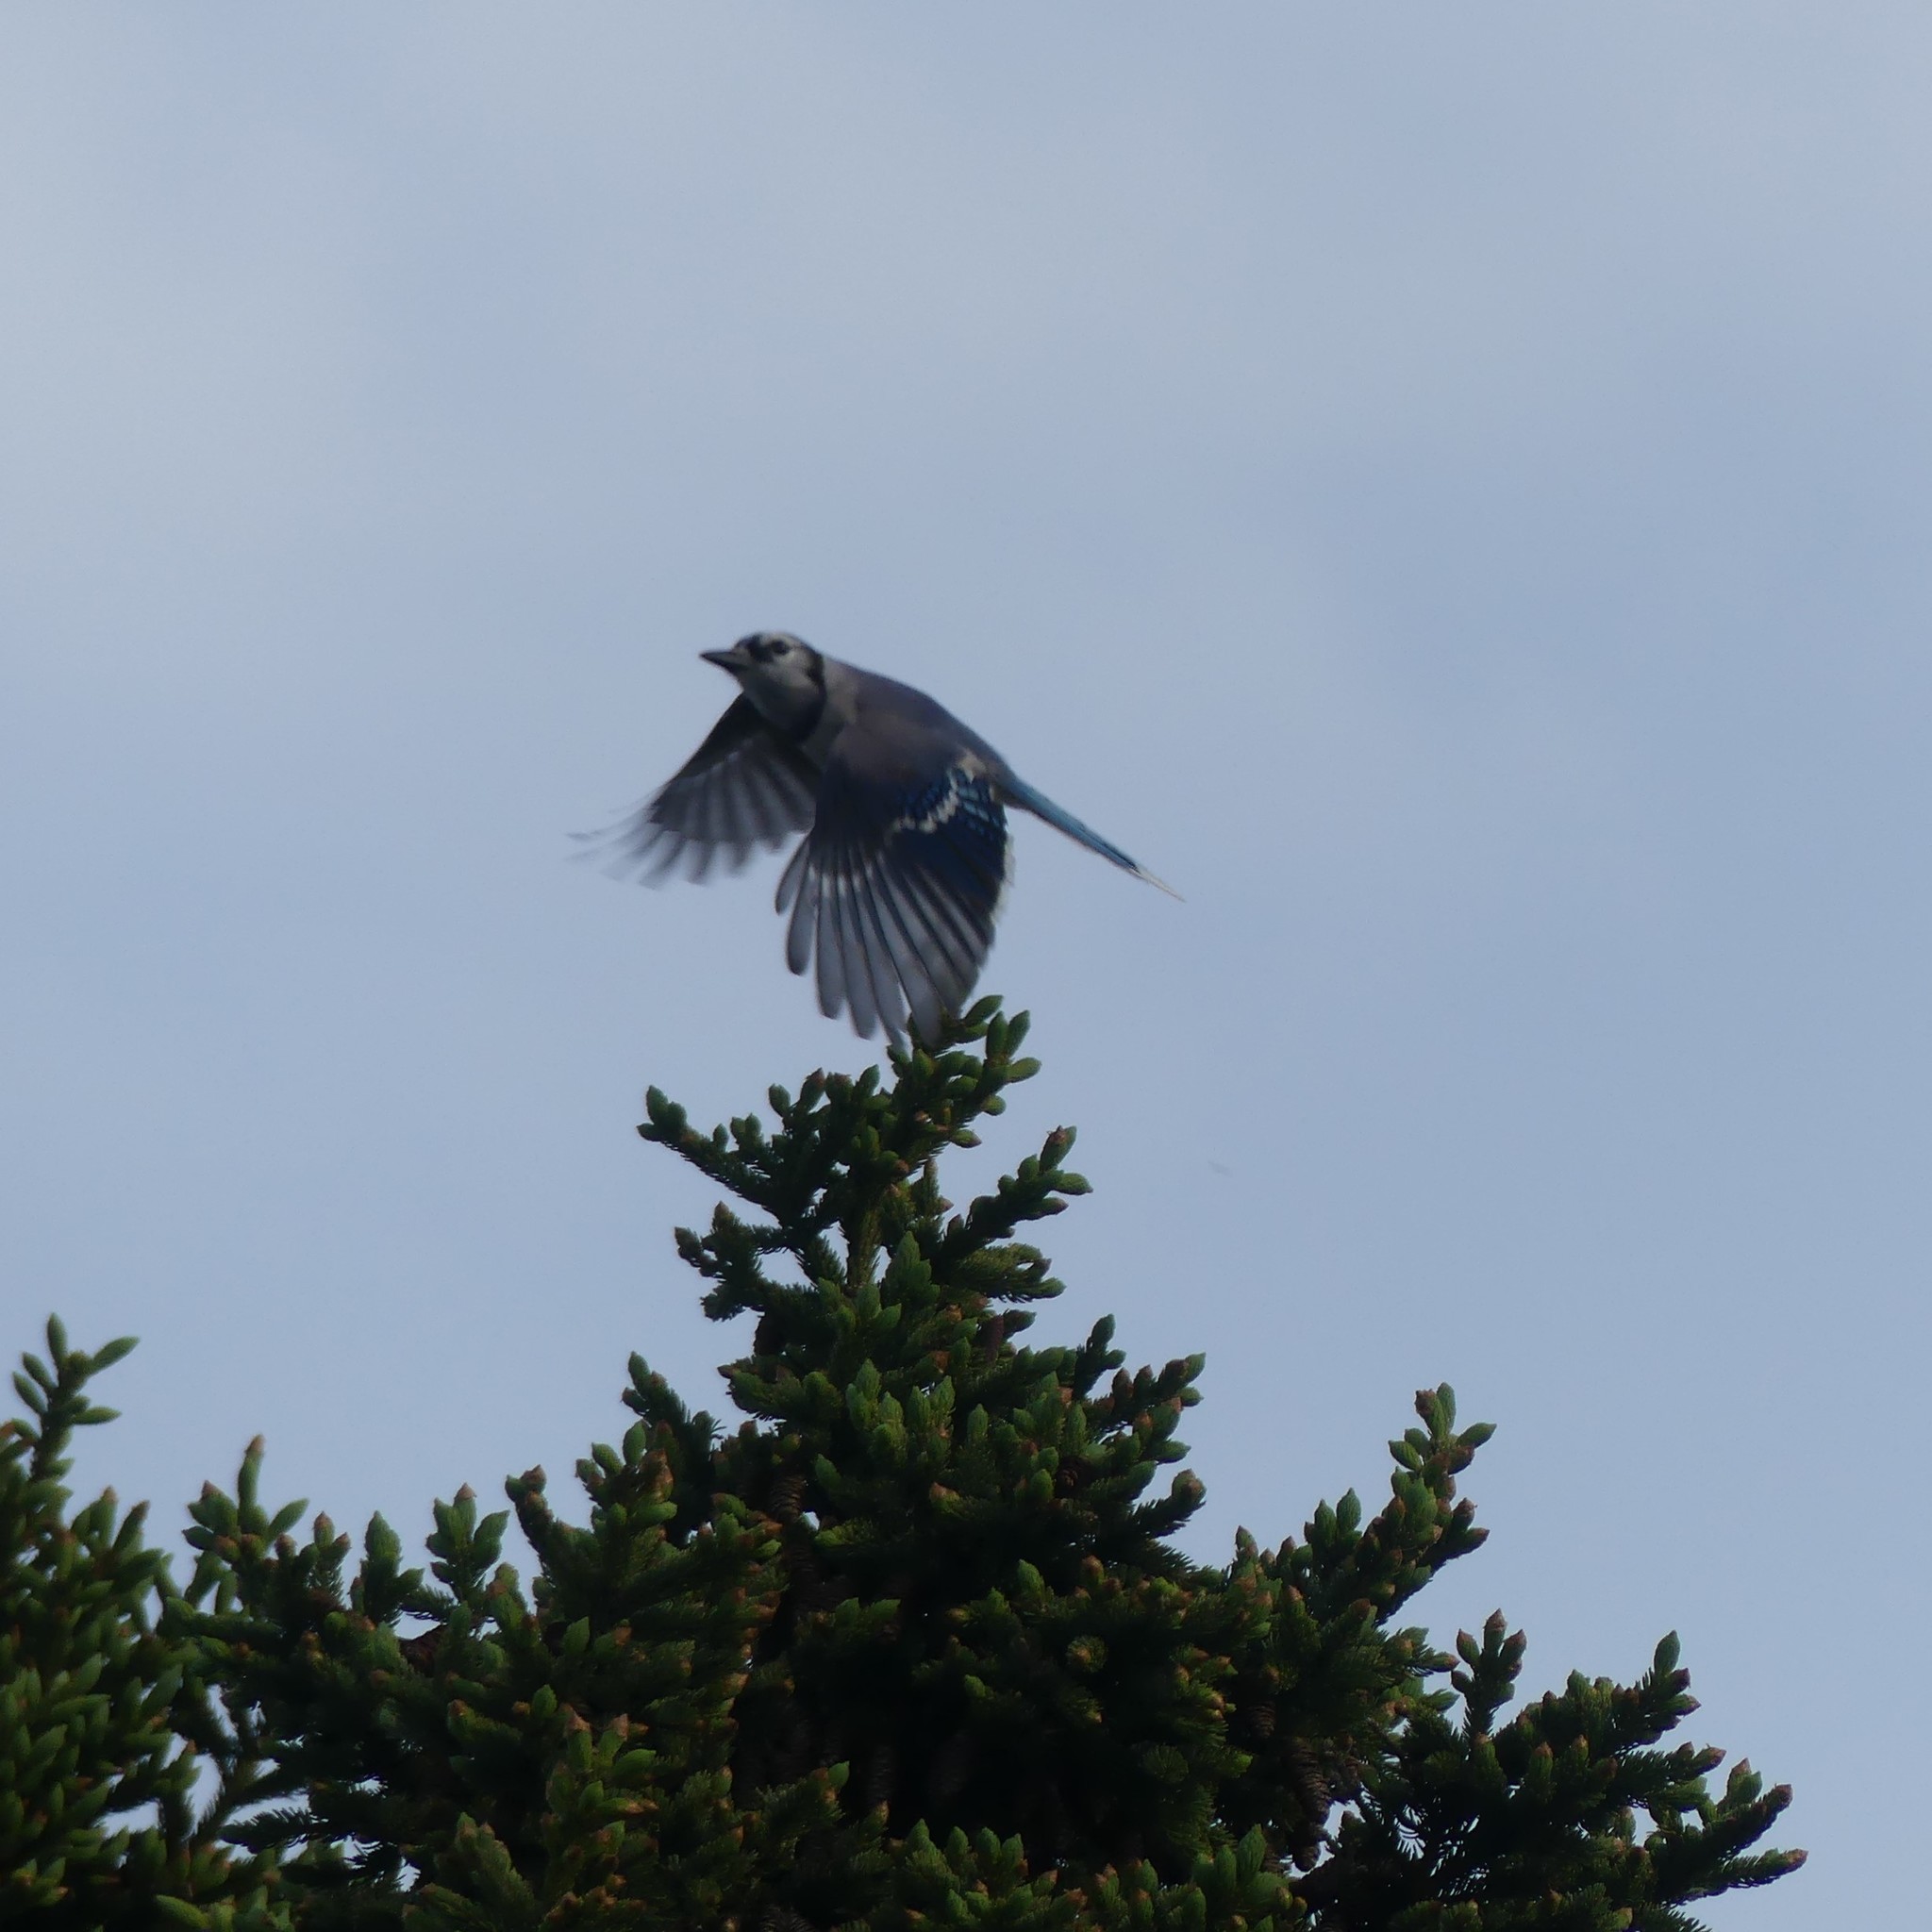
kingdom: Animalia
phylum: Chordata
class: Aves
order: Passeriformes
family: Corvidae
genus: Cyanocitta
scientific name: Cyanocitta cristata
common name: Blue jay
